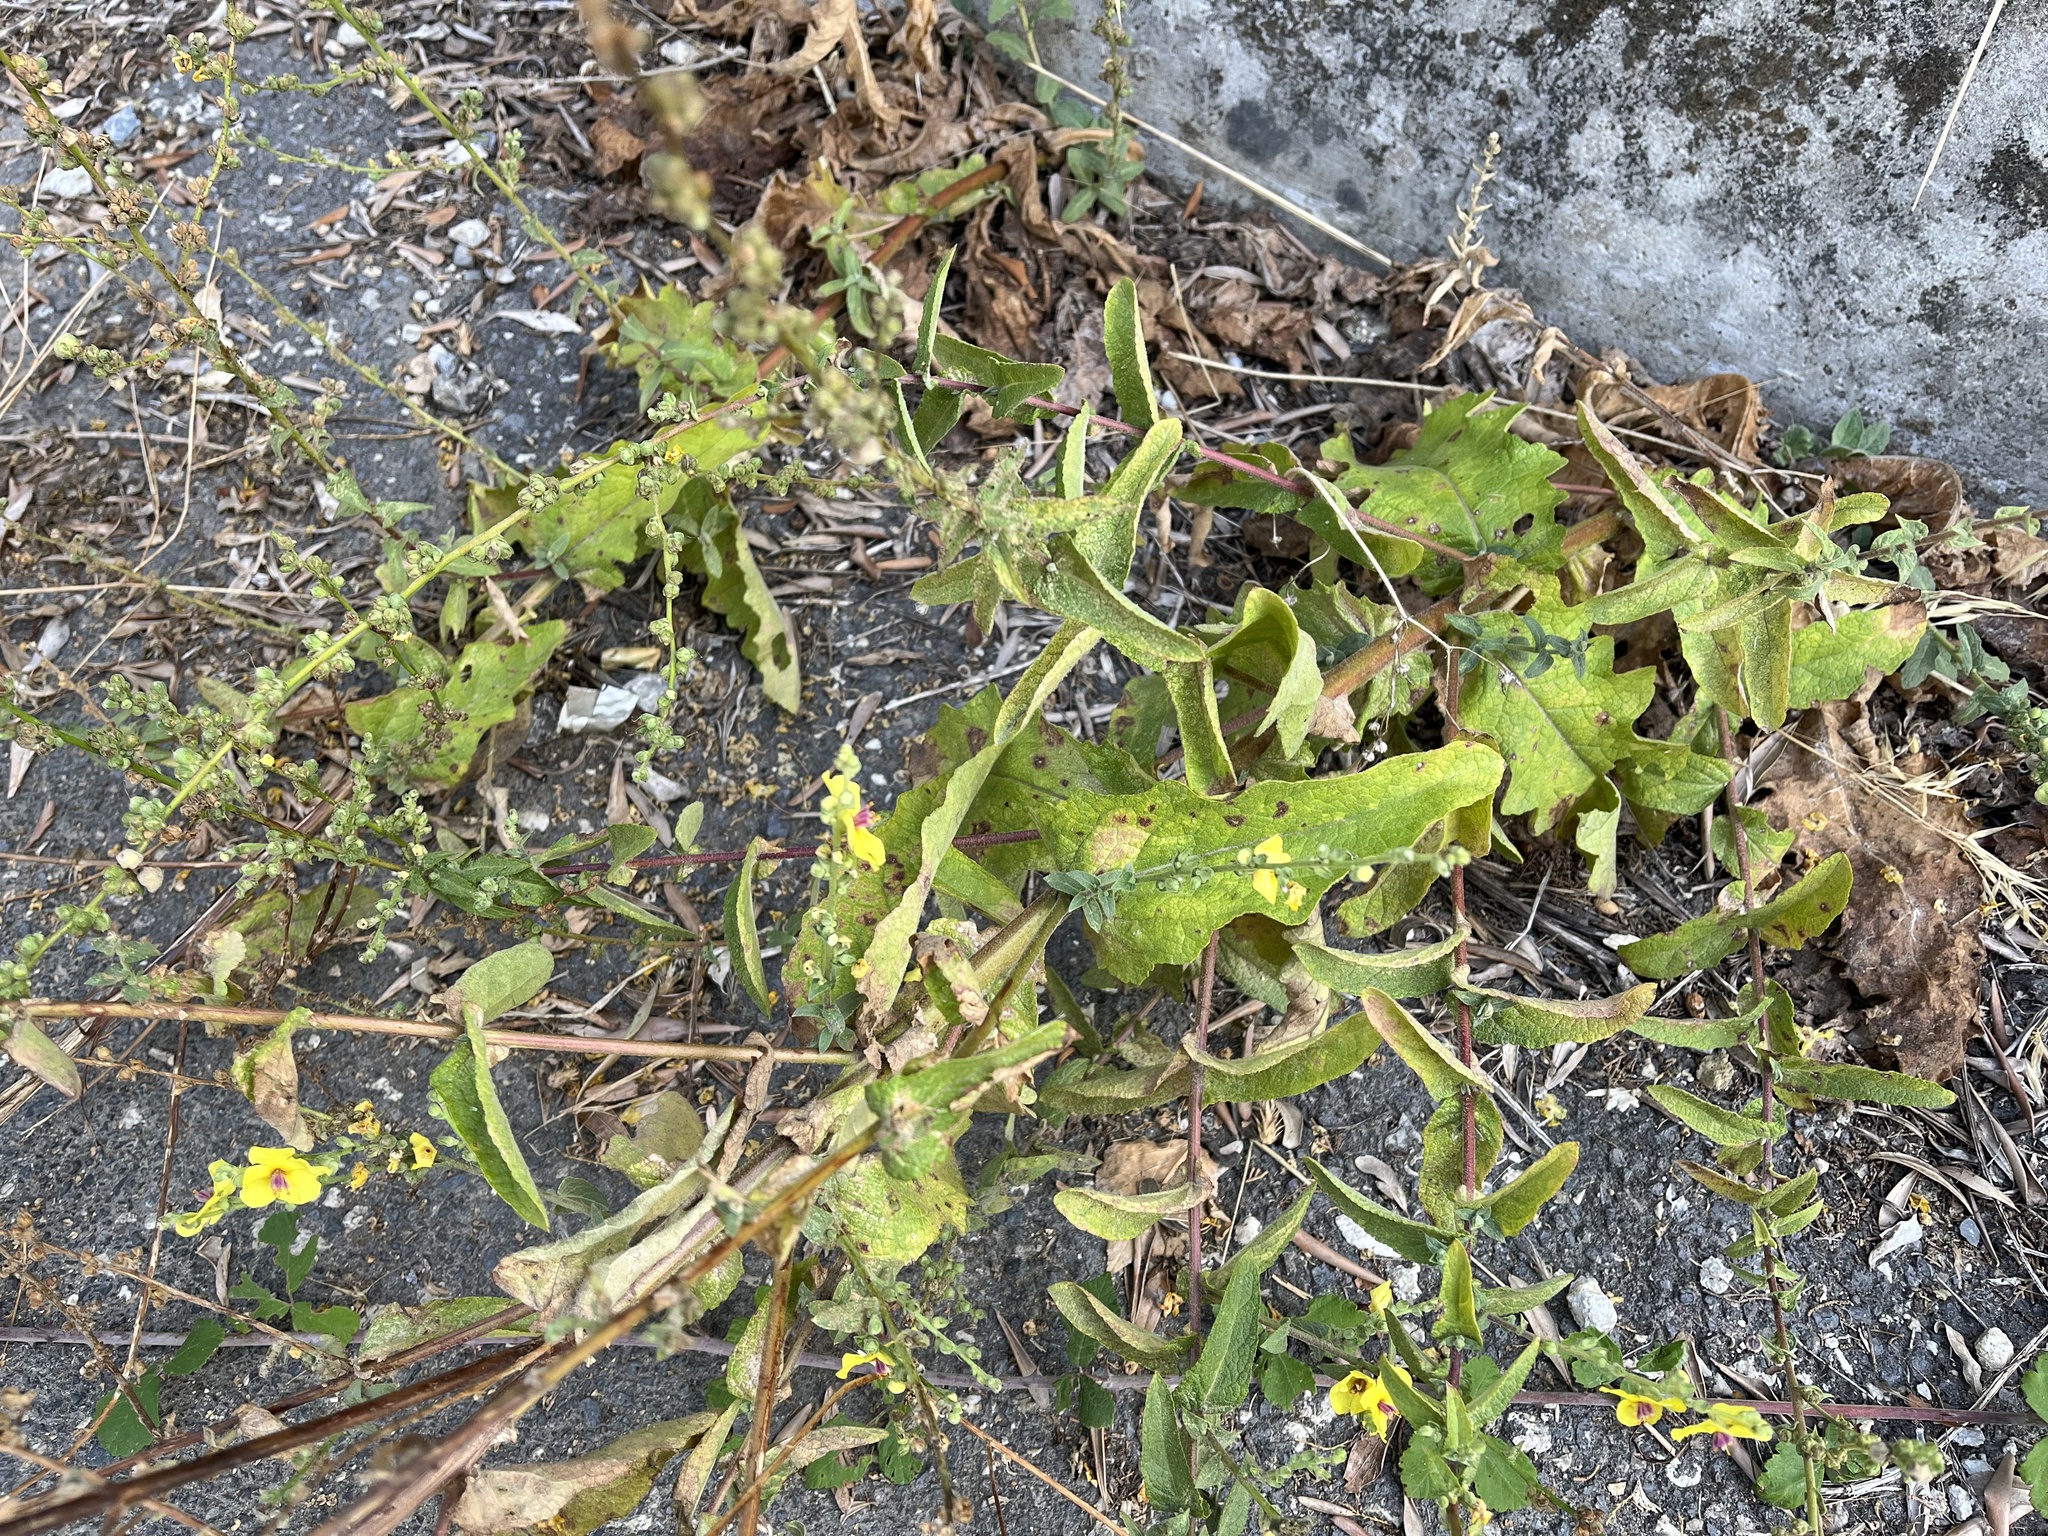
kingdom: Plantae
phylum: Tracheophyta
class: Magnoliopsida
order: Lamiales
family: Scrophulariaceae
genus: Verbascum
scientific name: Verbascum sinuatum
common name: Wavyleaf mullein
